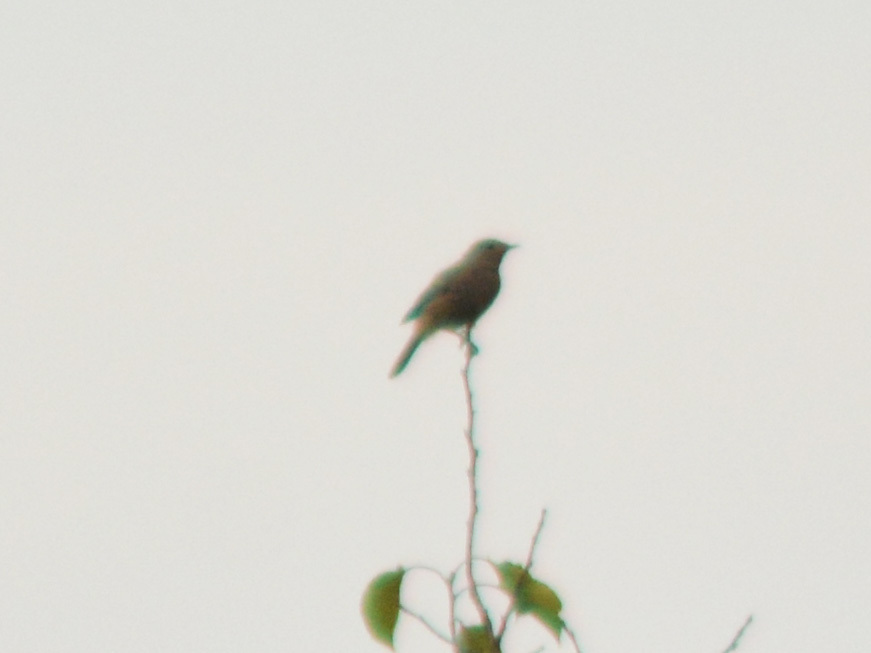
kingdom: Animalia
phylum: Chordata
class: Aves
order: Passeriformes
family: Muscicapidae
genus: Phoenicurus
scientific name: Phoenicurus ochruros
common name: Black redstart
